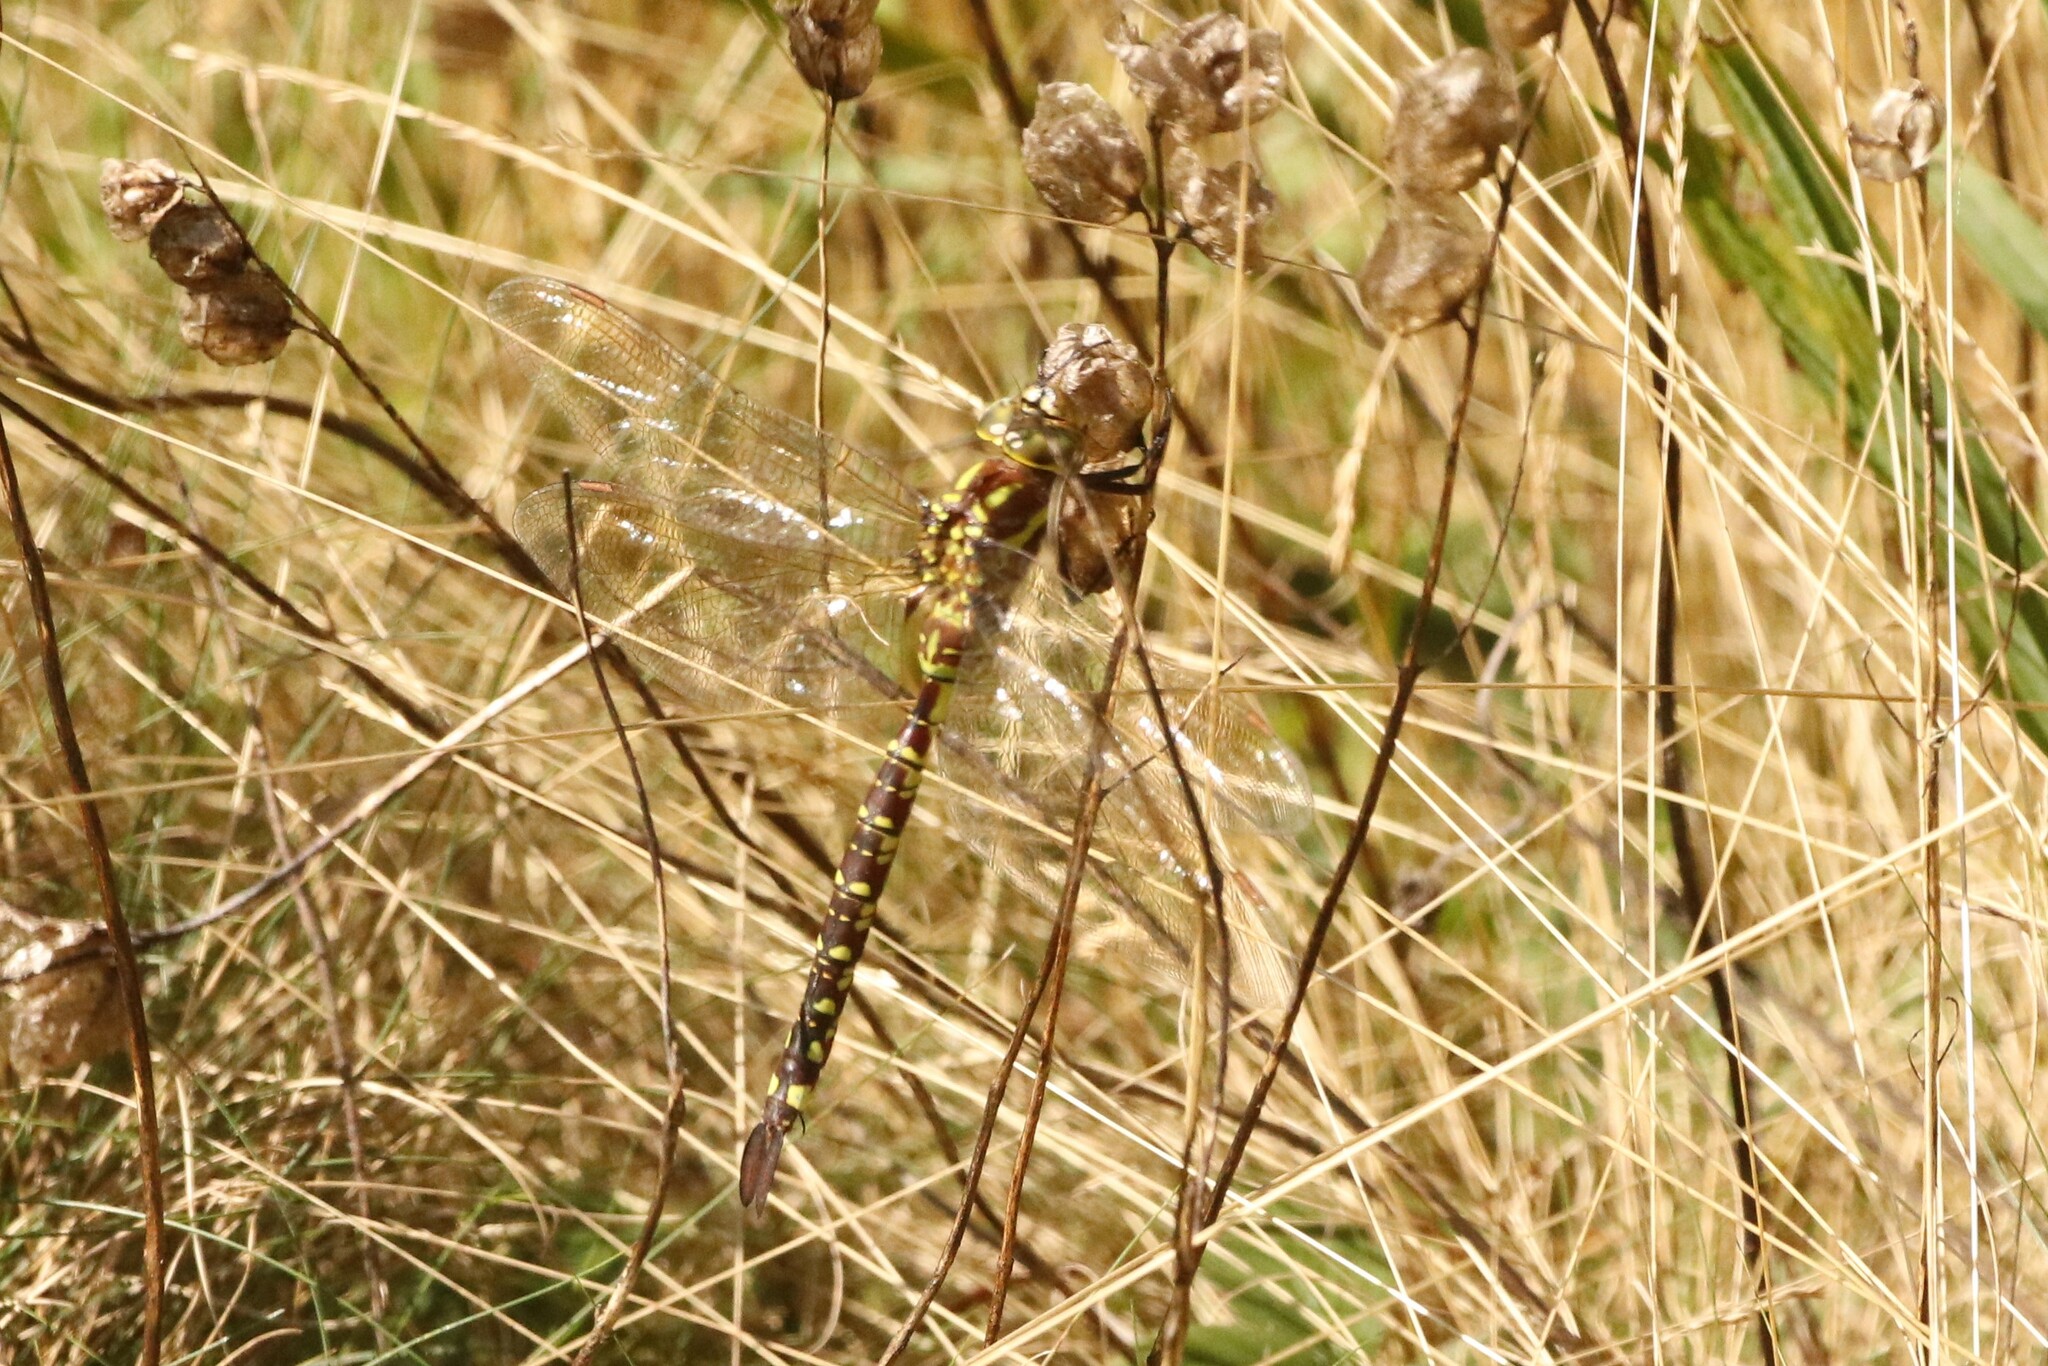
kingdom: Animalia
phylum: Arthropoda
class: Insecta
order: Odonata
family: Aeshnidae
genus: Aeshna
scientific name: Aeshna constricta
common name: Lance-tipped darner
